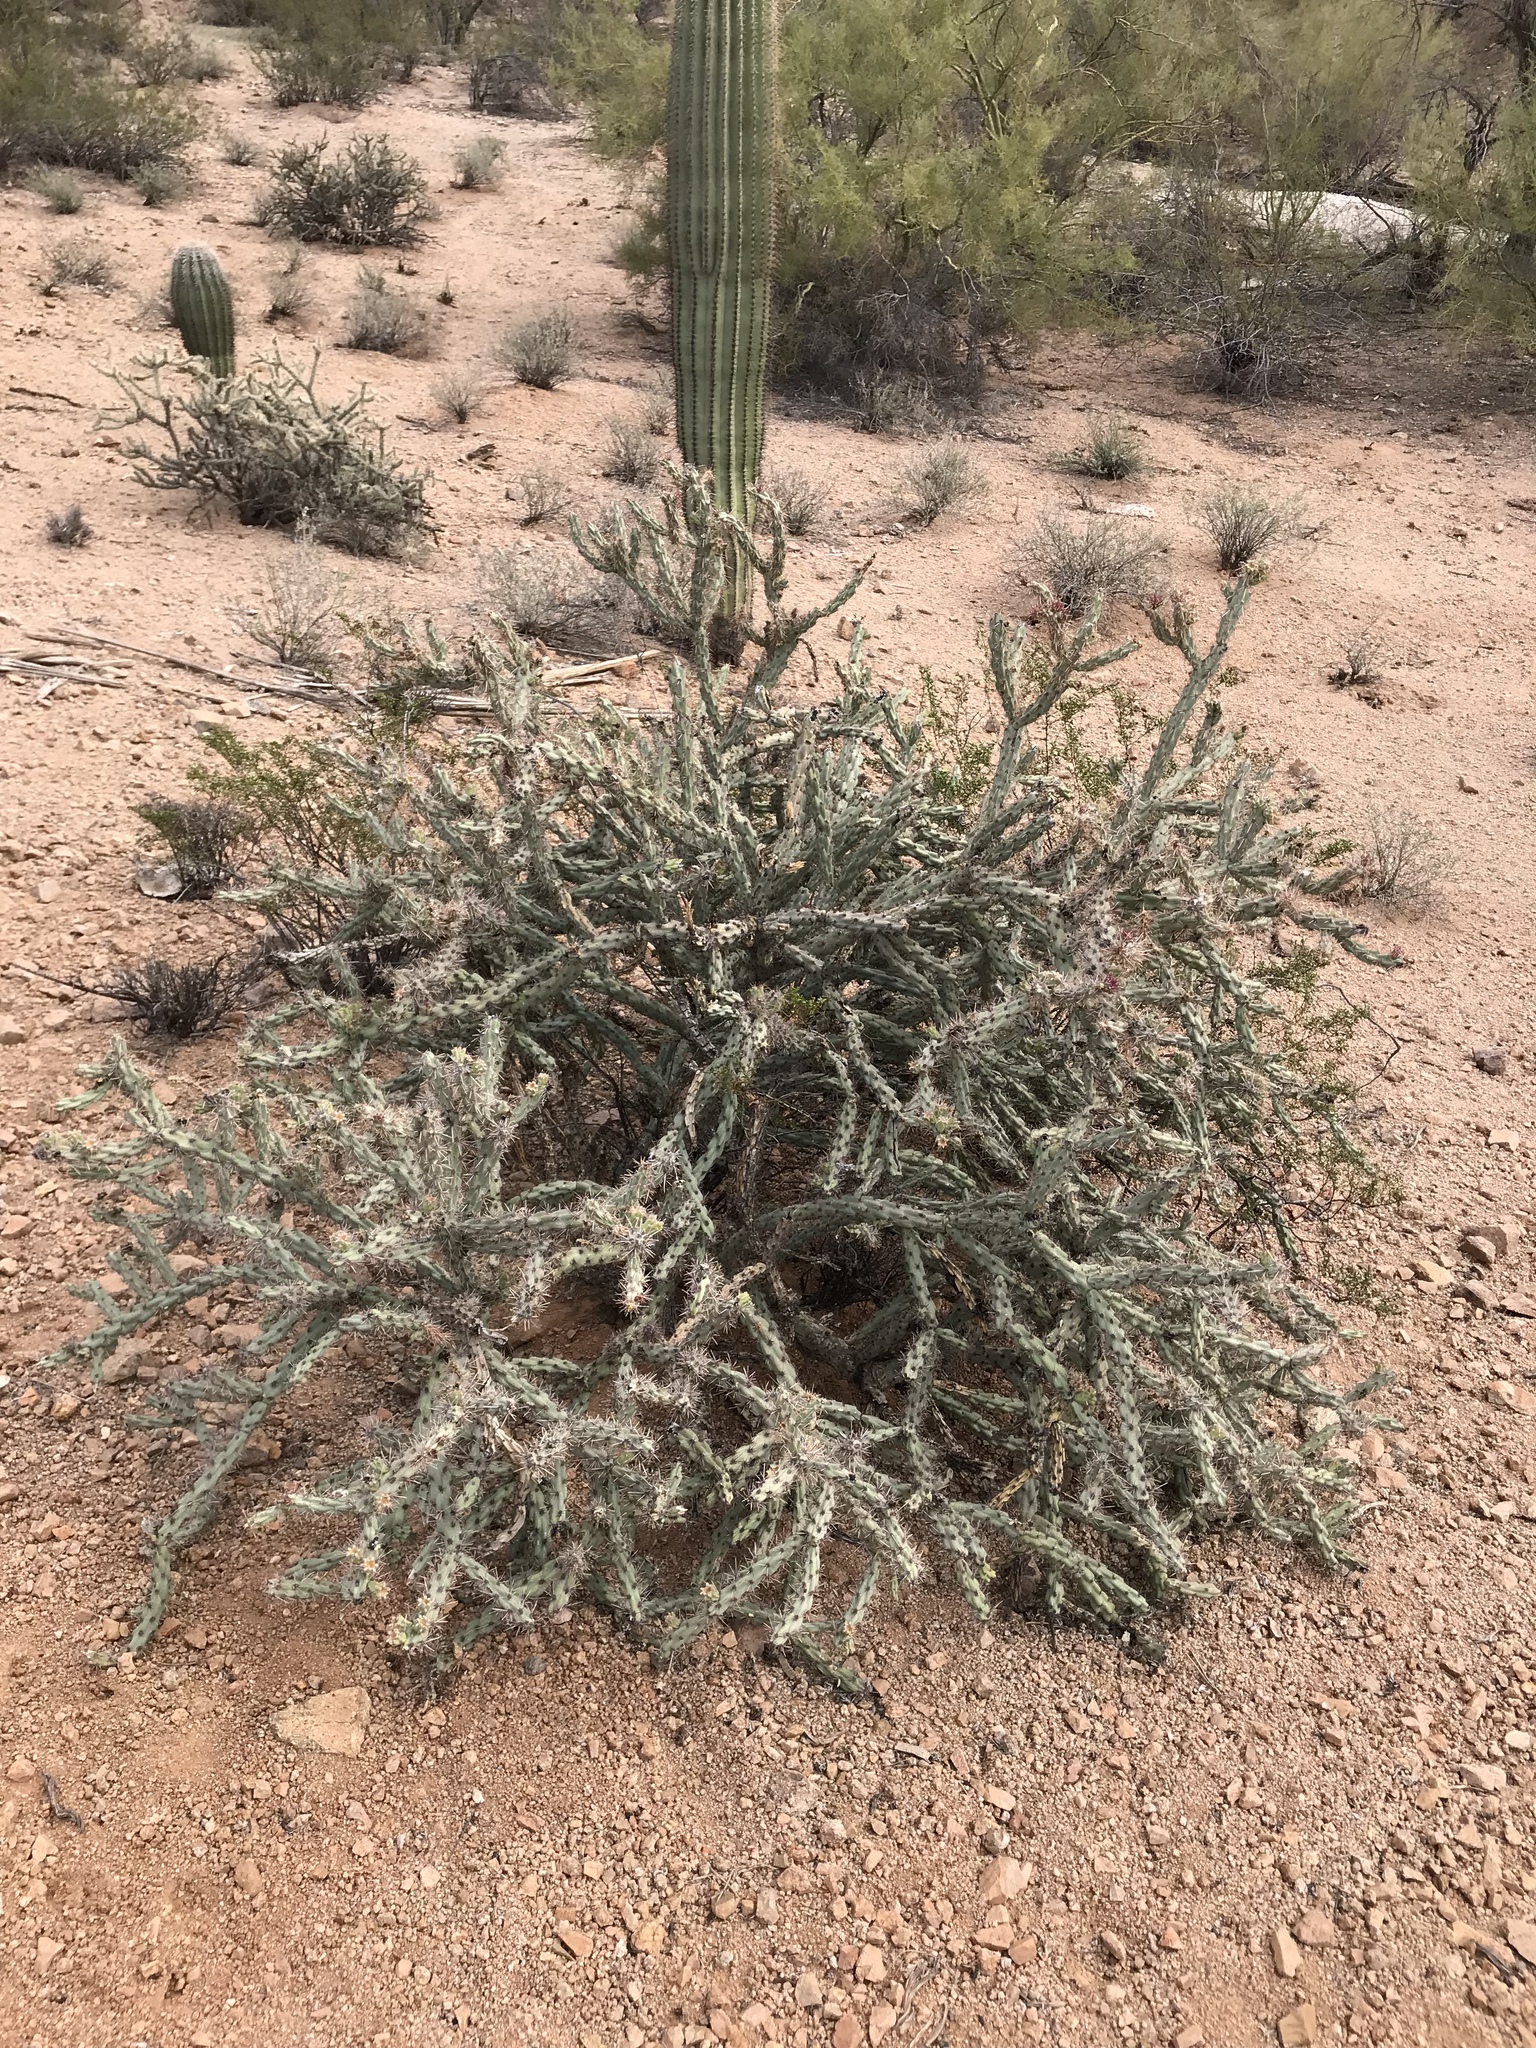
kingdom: Plantae
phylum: Tracheophyta
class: Magnoliopsida
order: Caryophyllales
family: Cactaceae
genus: Cylindropuntia
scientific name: Cylindropuntia acanthocarpa
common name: Buckhorn cholla
